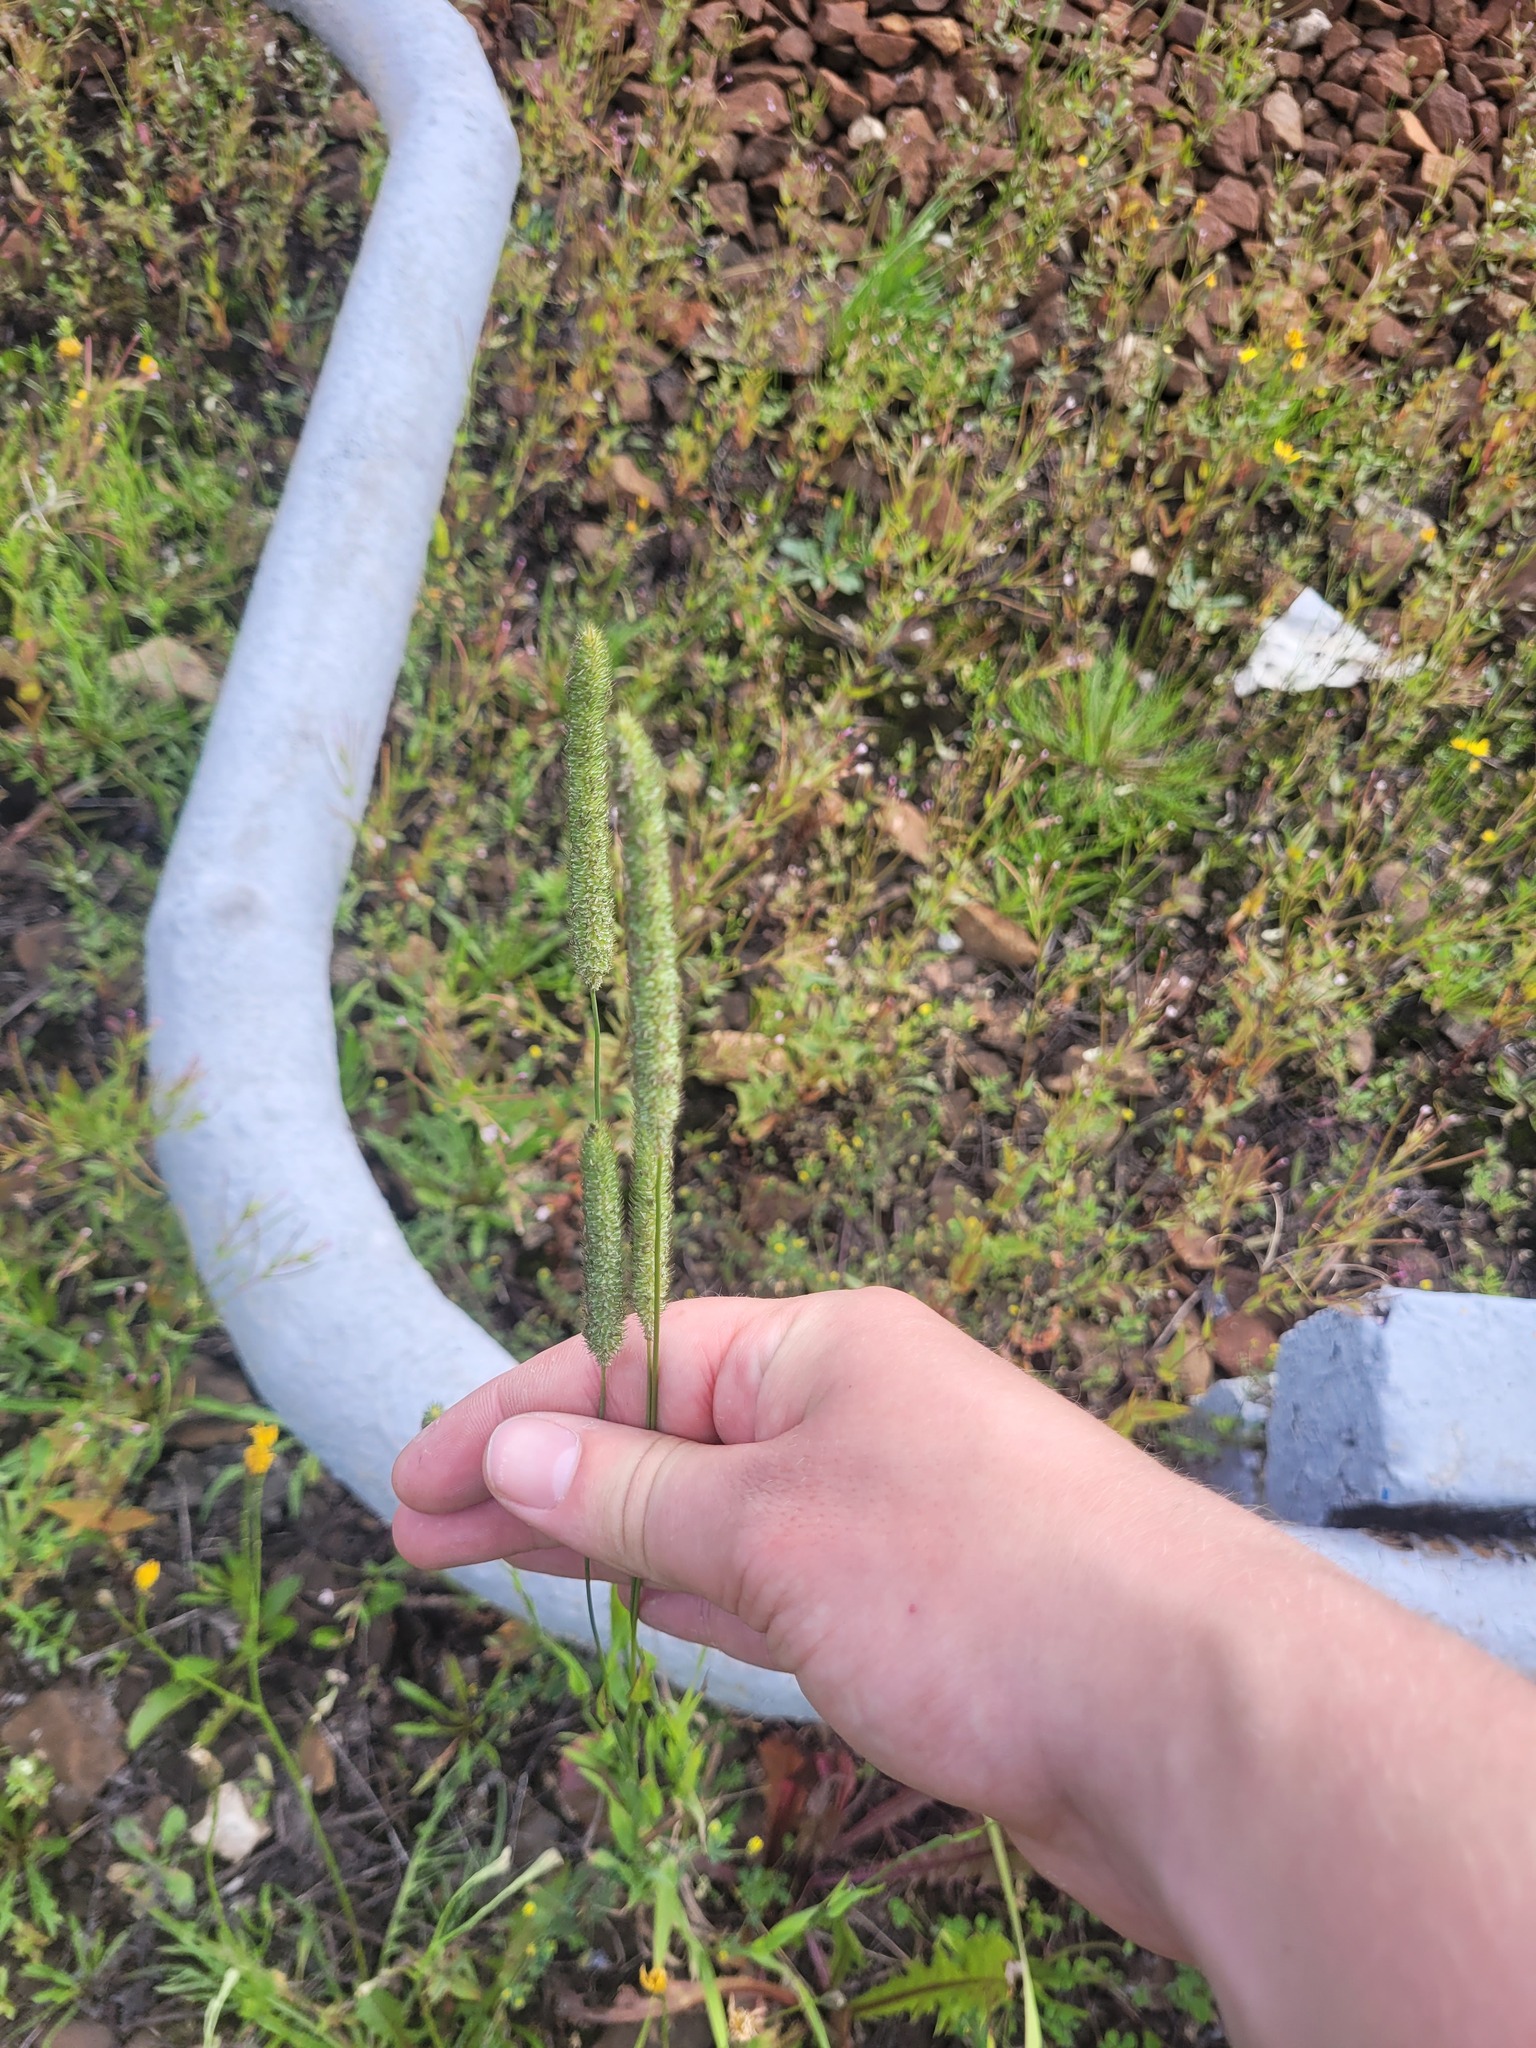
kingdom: Plantae
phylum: Tracheophyta
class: Liliopsida
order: Poales
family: Poaceae
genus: Phleum
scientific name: Phleum pratense
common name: Timothy grass
